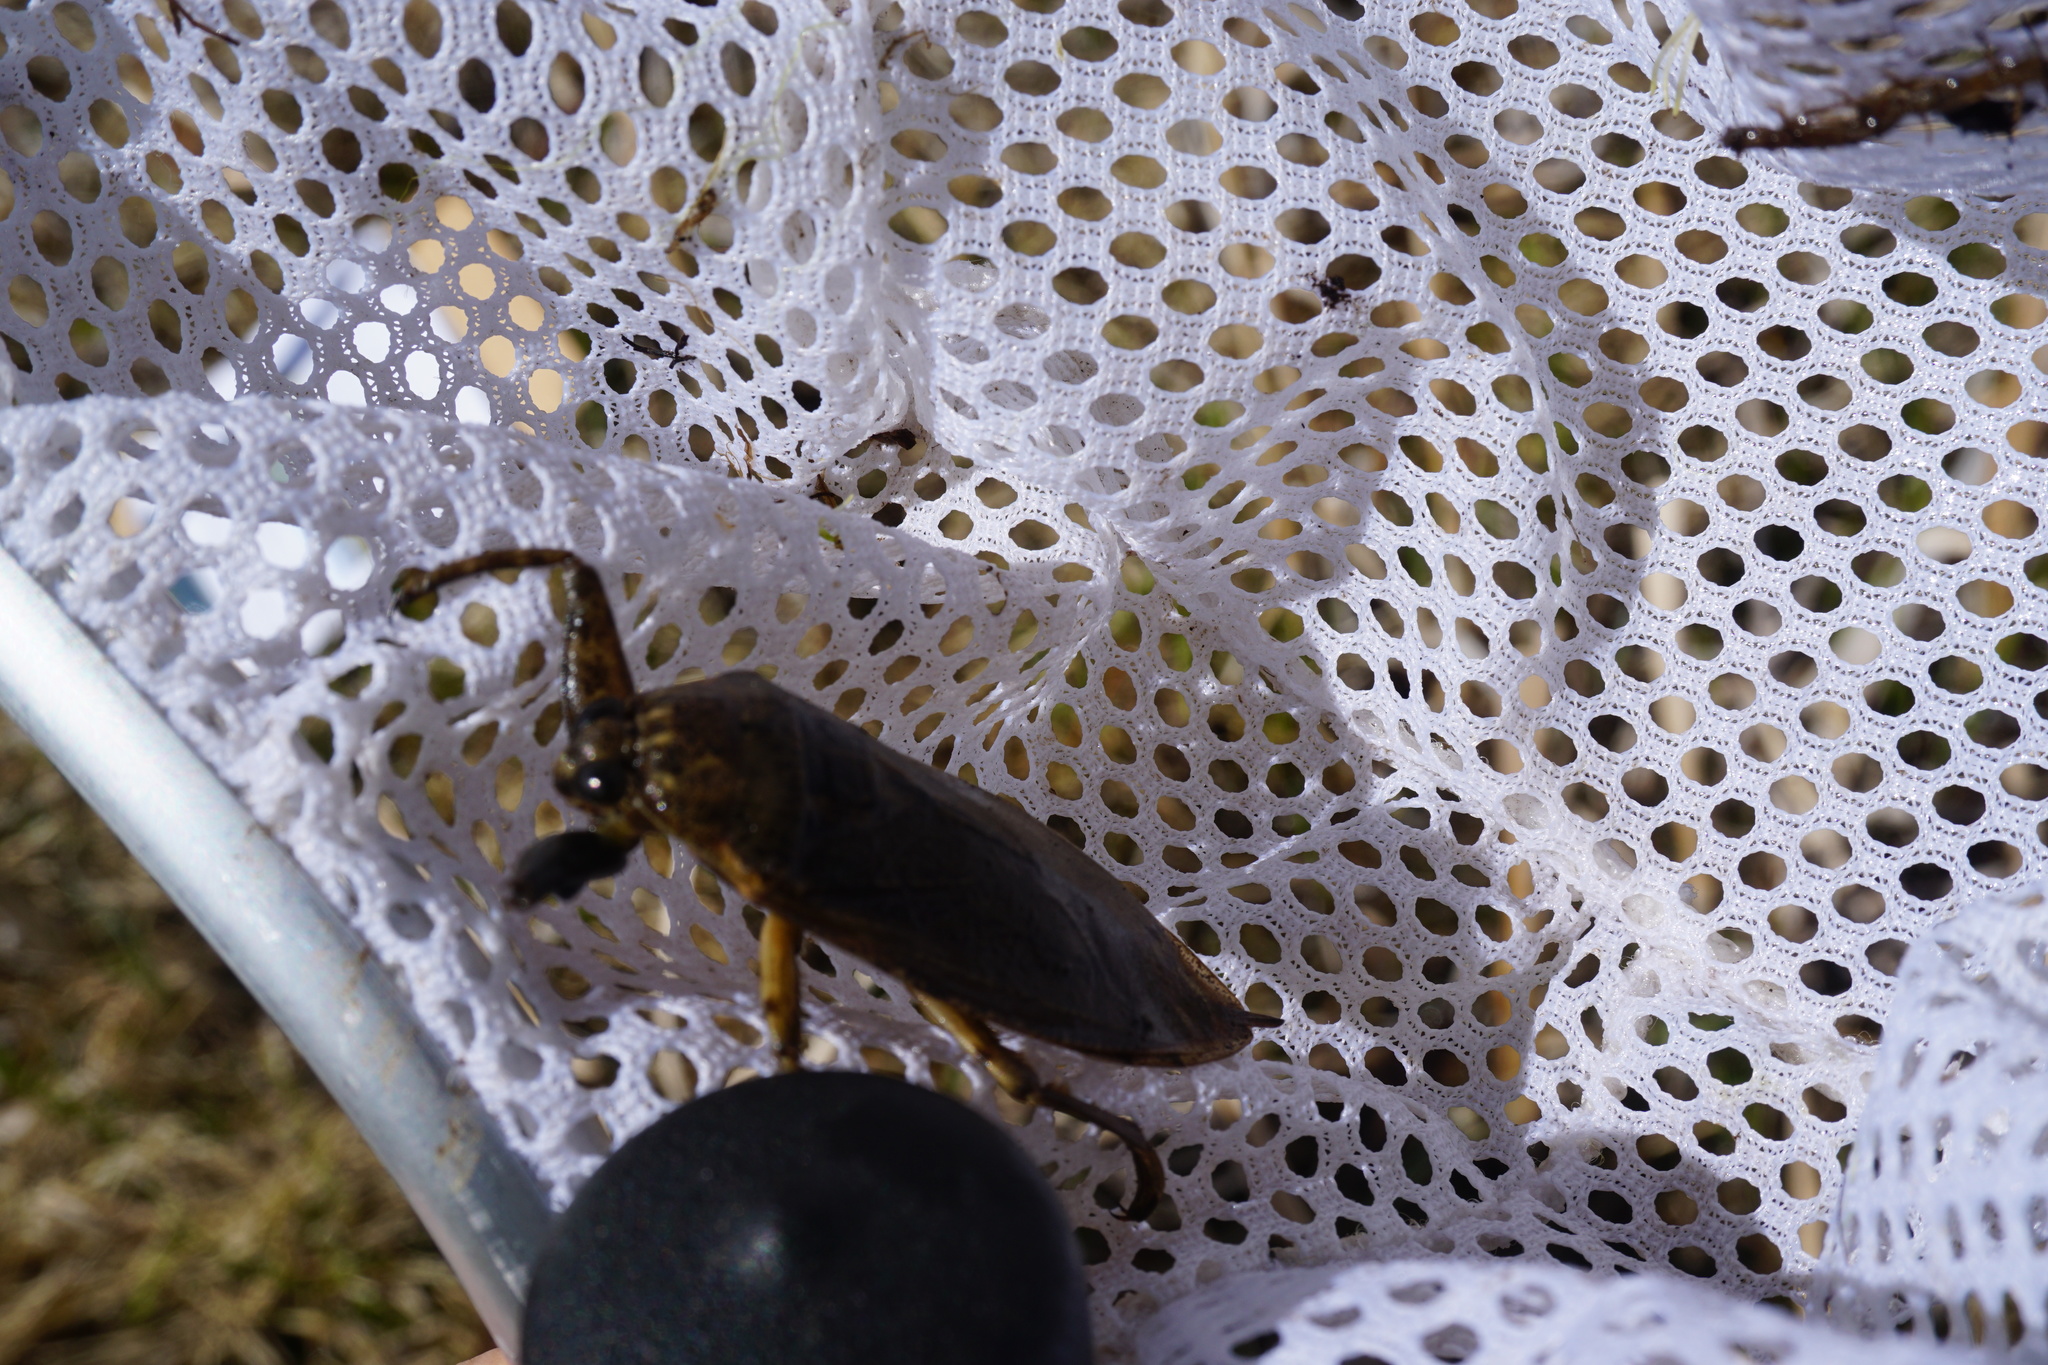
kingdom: Animalia
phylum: Arthropoda
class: Insecta
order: Hemiptera
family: Belostomatidae
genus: Lethocerus
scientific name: Lethocerus americanus
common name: Giant water bug
